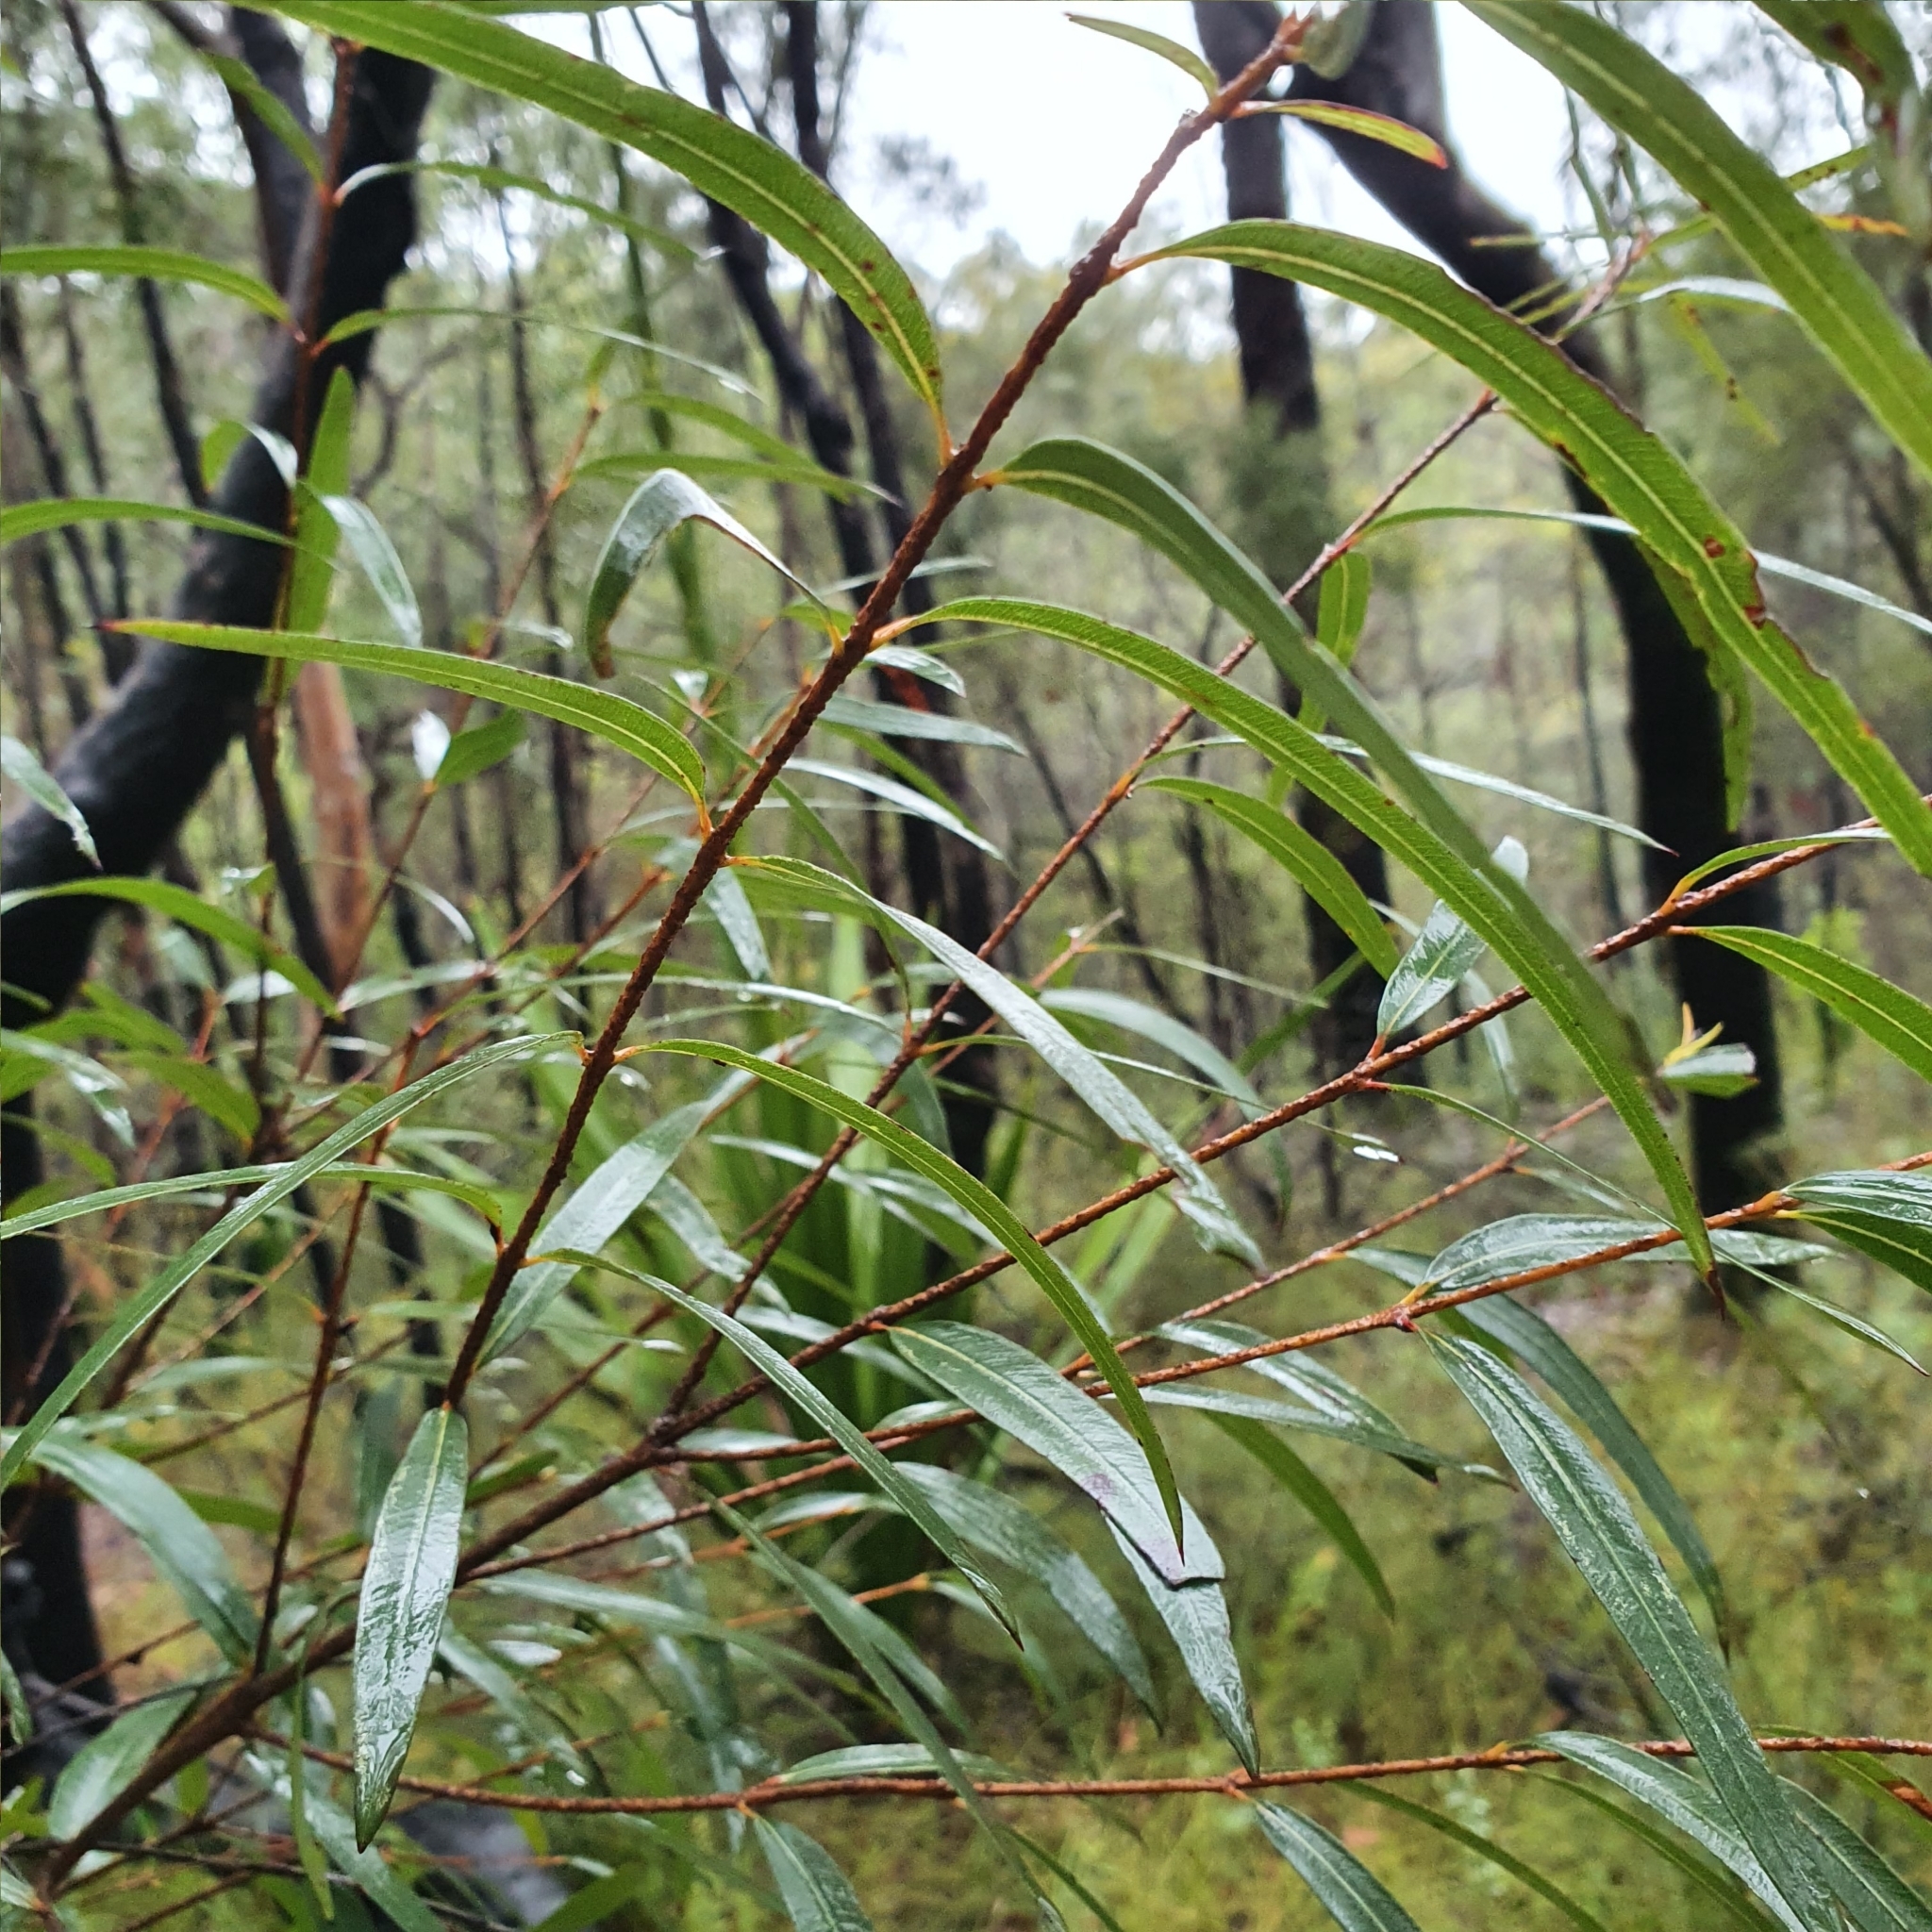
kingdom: Plantae
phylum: Tracheophyta
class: Magnoliopsida
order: Myrtales
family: Myrtaceae
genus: Angophora
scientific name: Angophora bakeri
